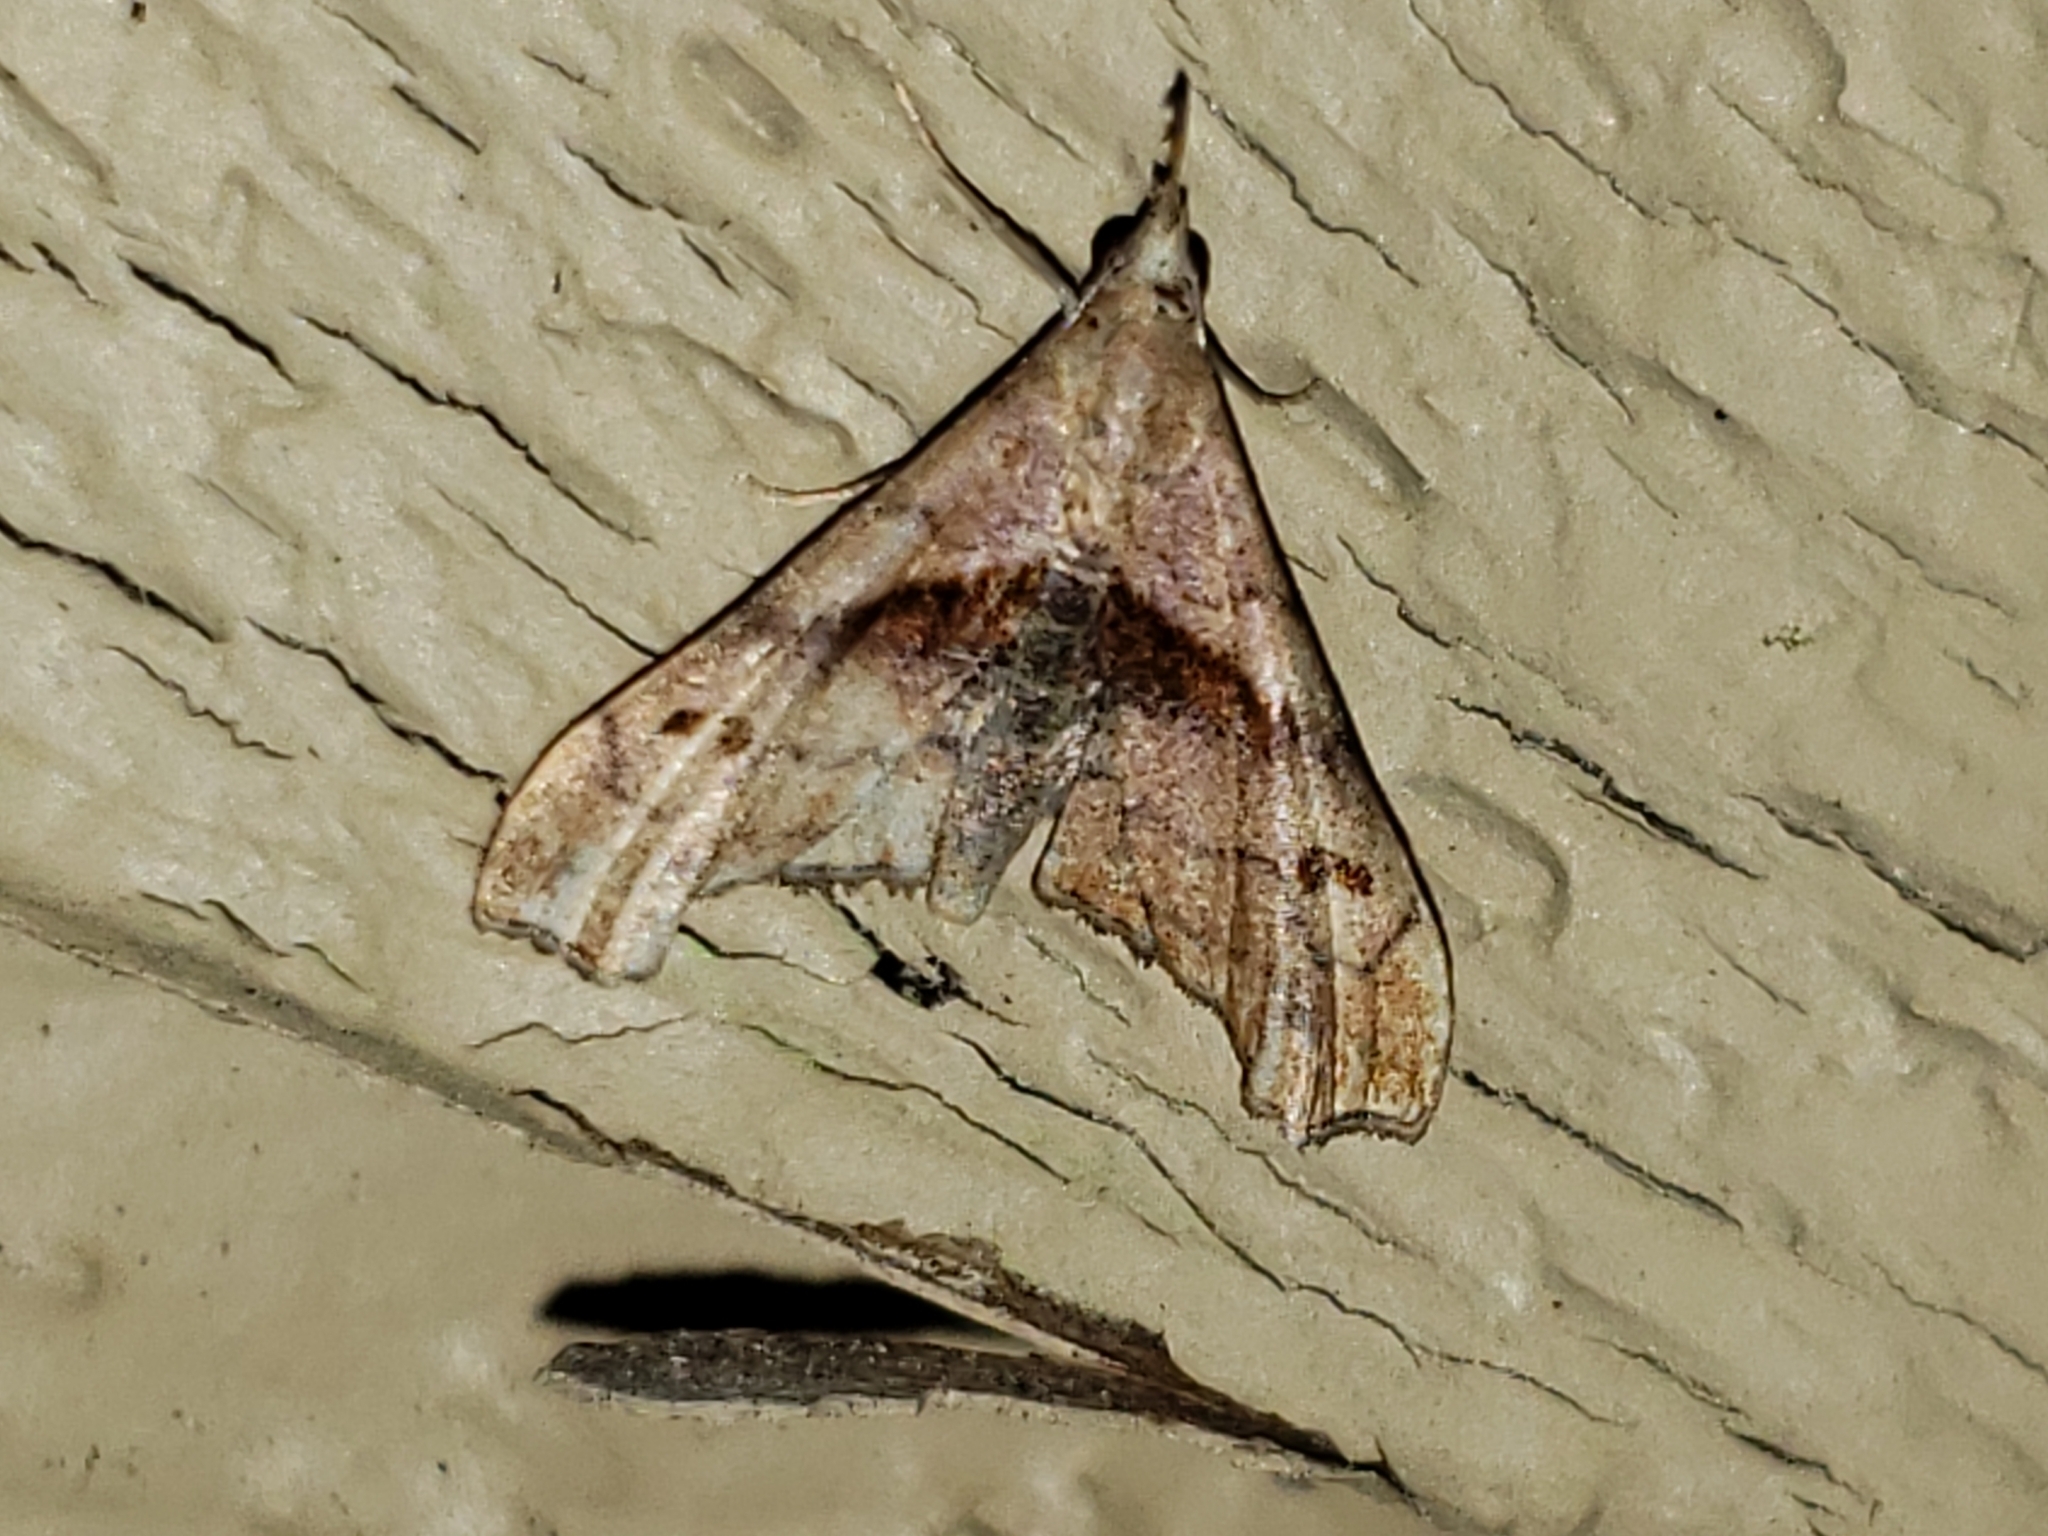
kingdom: Animalia
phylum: Arthropoda
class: Insecta
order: Lepidoptera
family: Erebidae
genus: Palthis
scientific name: Palthis angulalis
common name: Dark-spotted palthis moth
